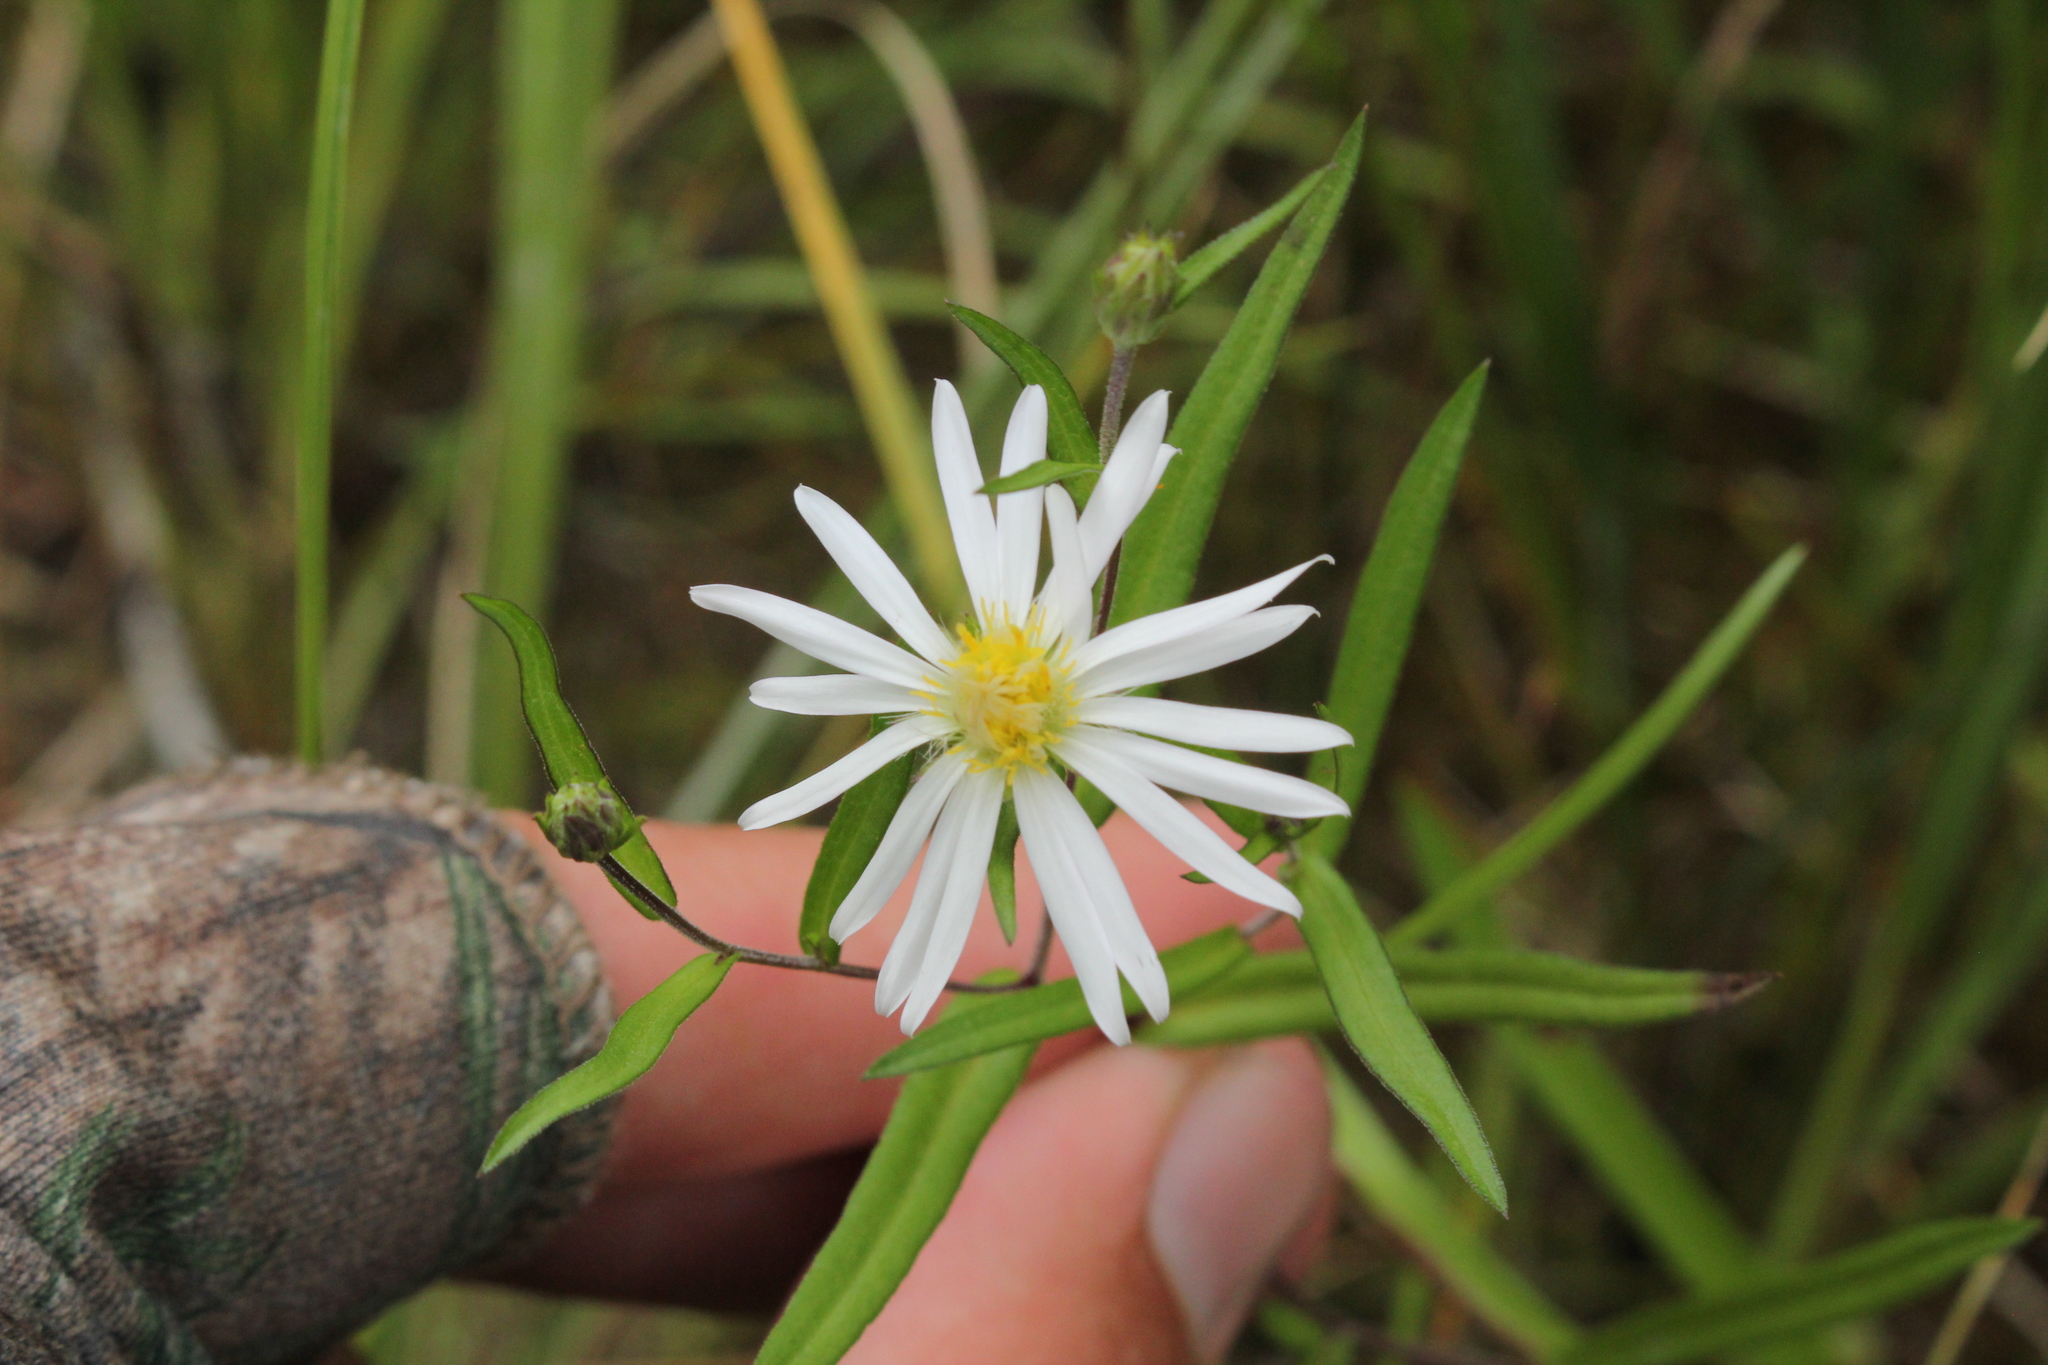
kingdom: Plantae
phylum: Tracheophyta
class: Magnoliopsida
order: Asterales
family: Asteraceae
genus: Symphyotrichum
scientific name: Symphyotrichum boreale
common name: Northern bog aster
